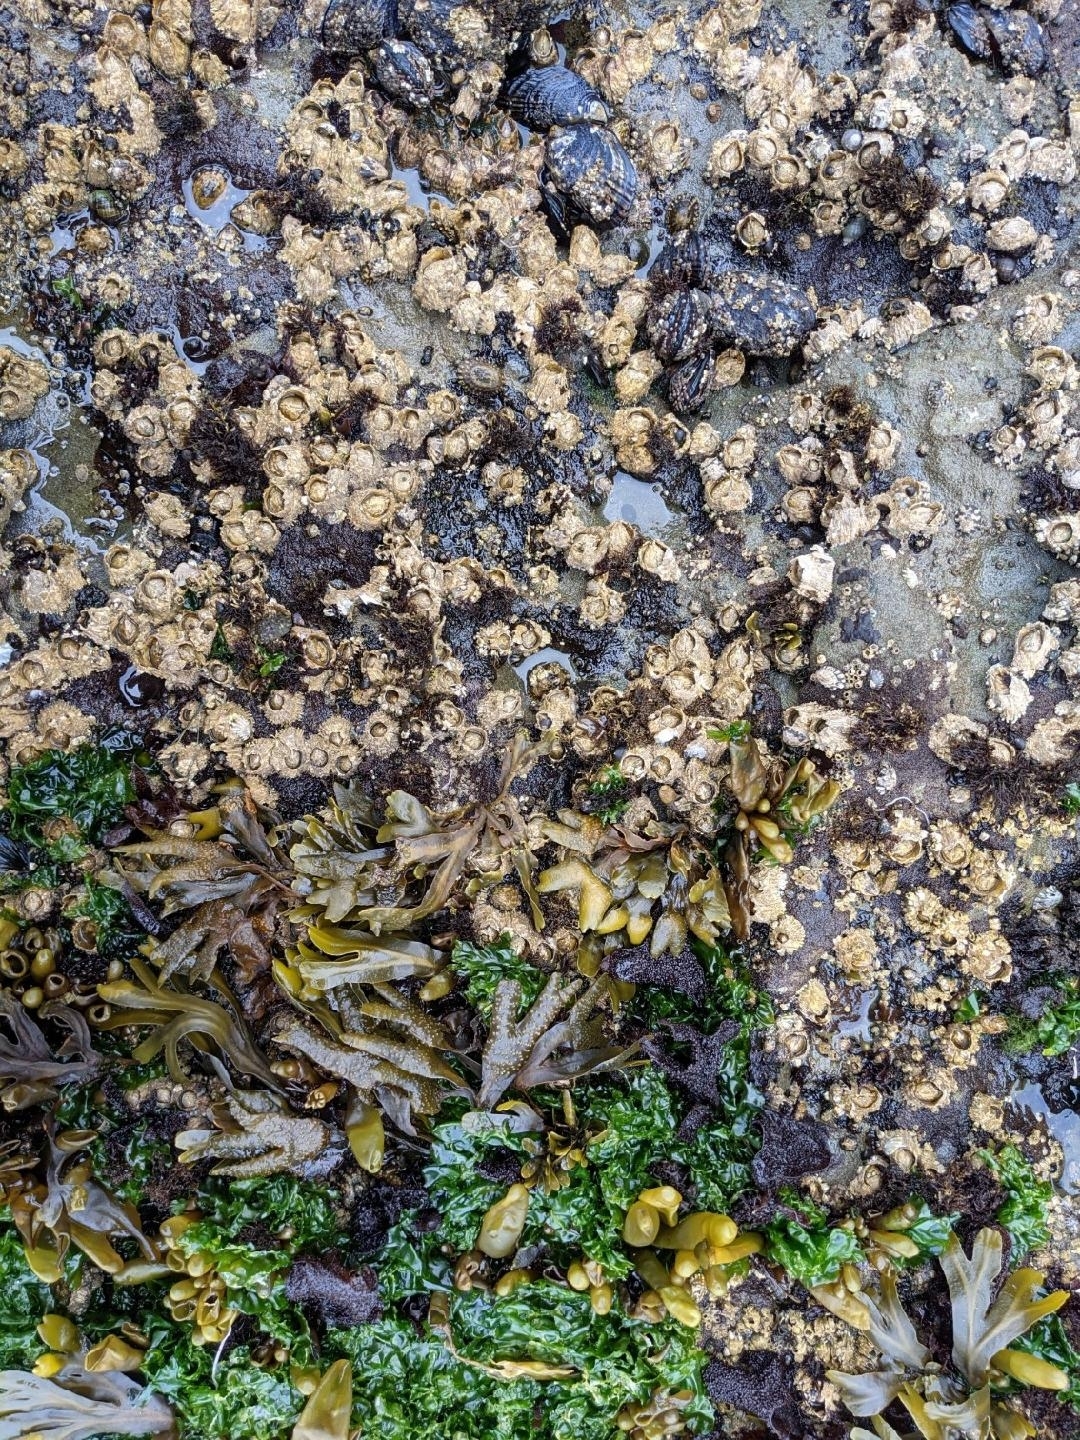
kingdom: Animalia
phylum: Mollusca
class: Bivalvia
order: Mytilida
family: Mytilidae
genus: Mytilus
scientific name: Mytilus californianus
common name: California mussel
